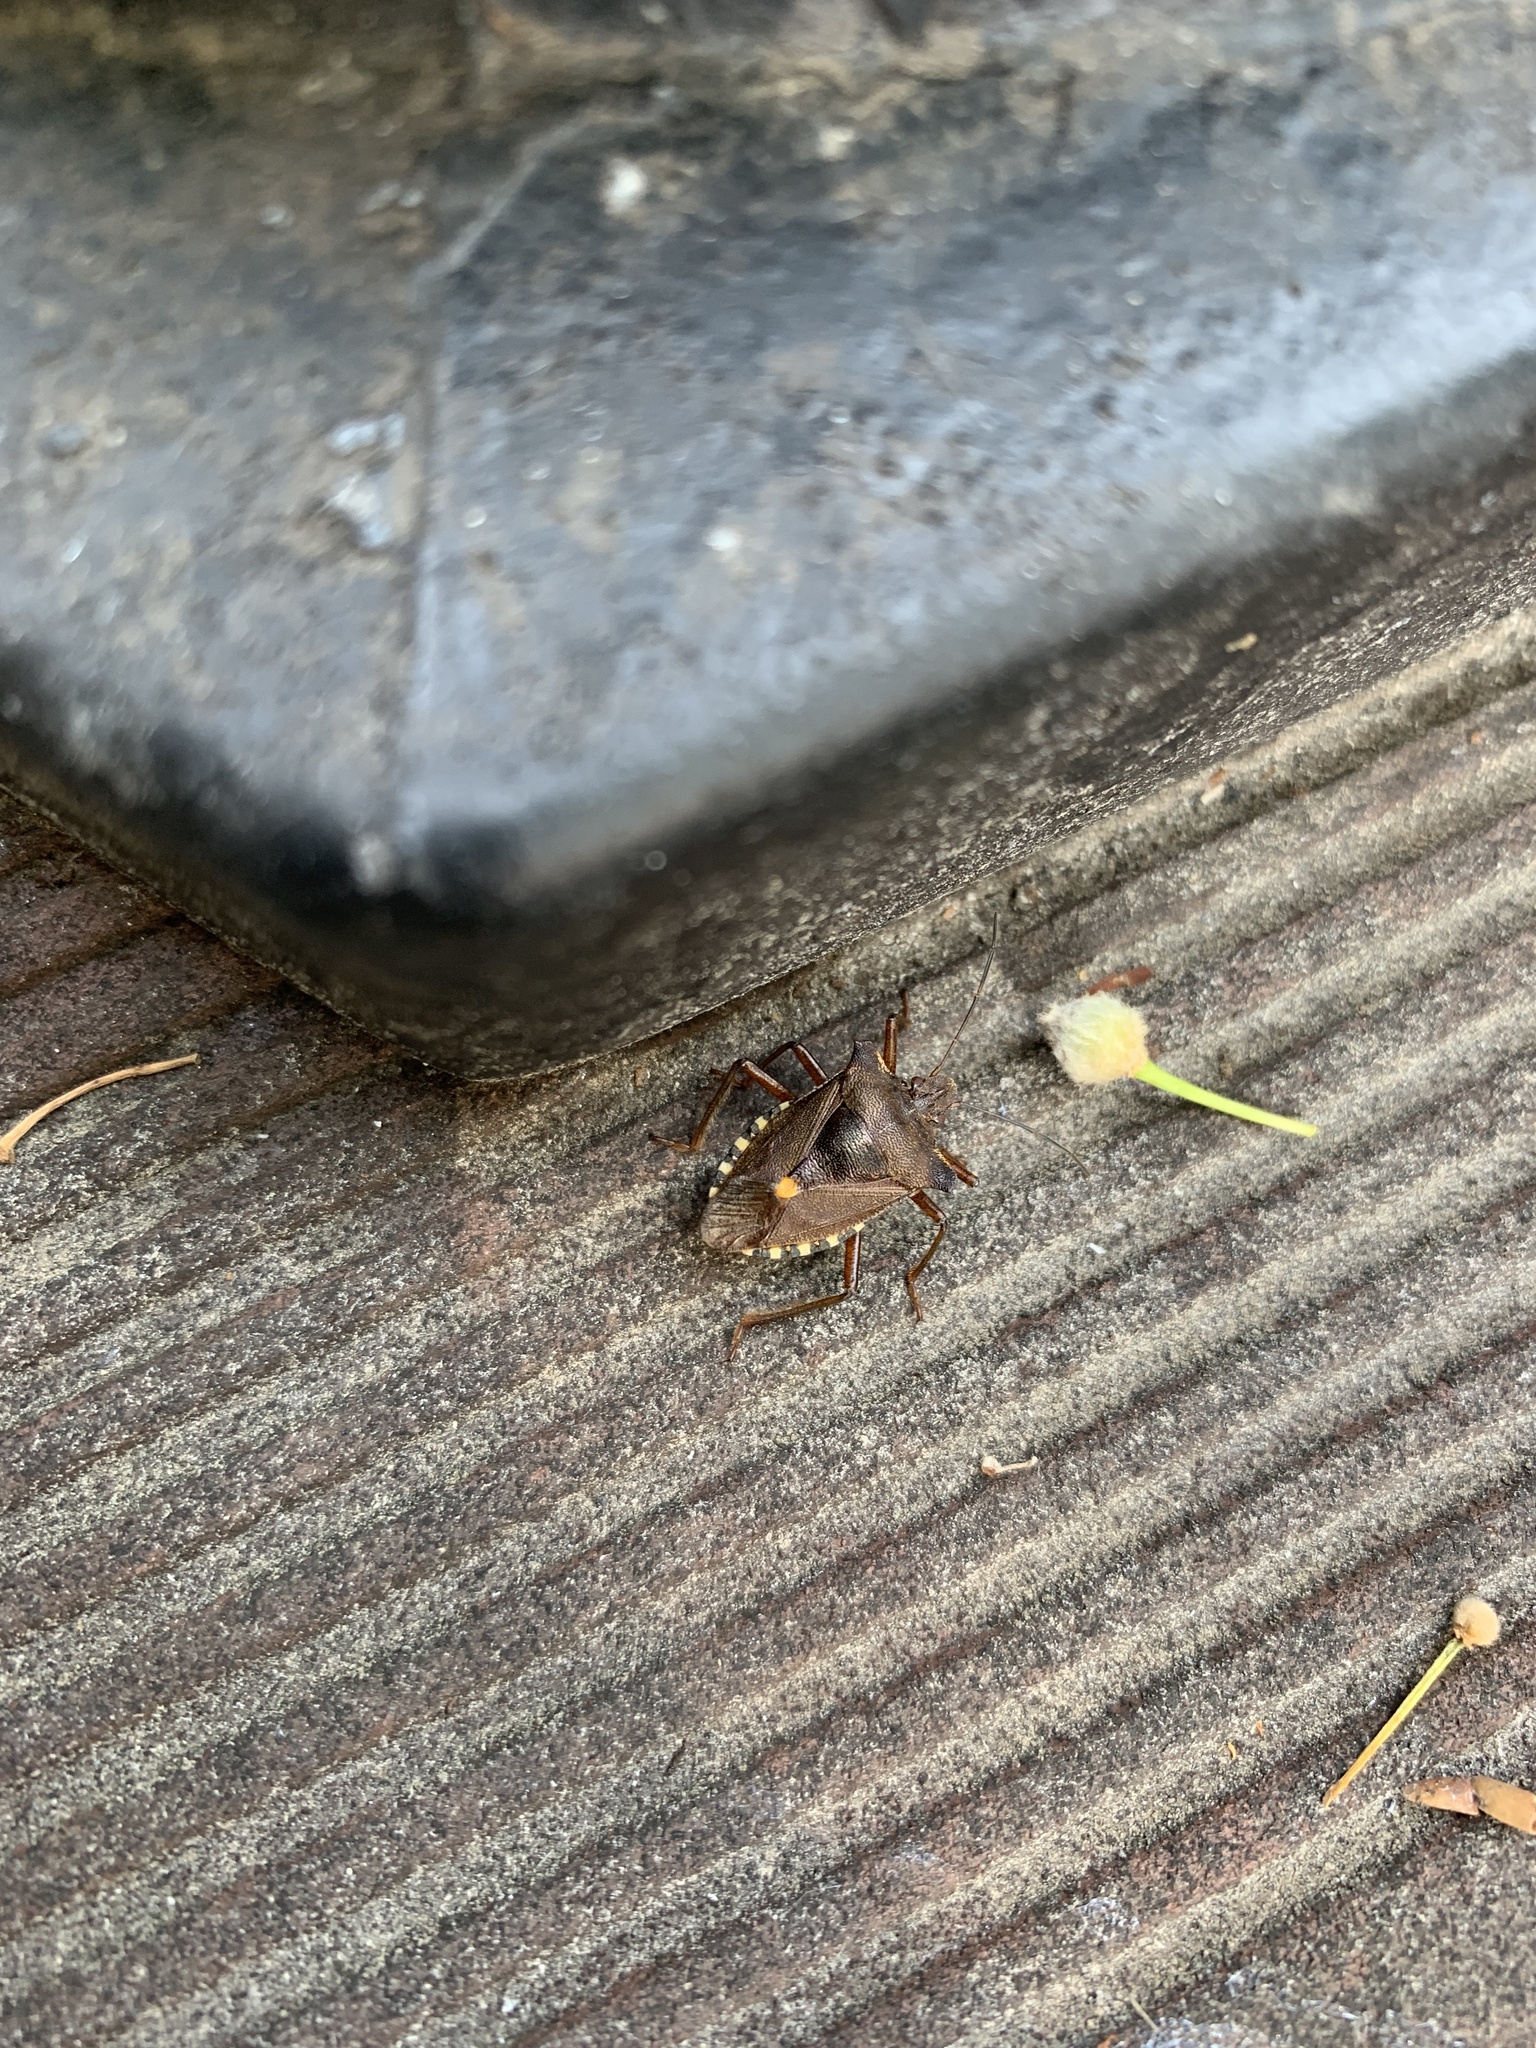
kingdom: Animalia
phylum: Arthropoda
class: Insecta
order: Hemiptera
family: Pentatomidae
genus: Pentatoma
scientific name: Pentatoma rufipes
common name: Forest bug
